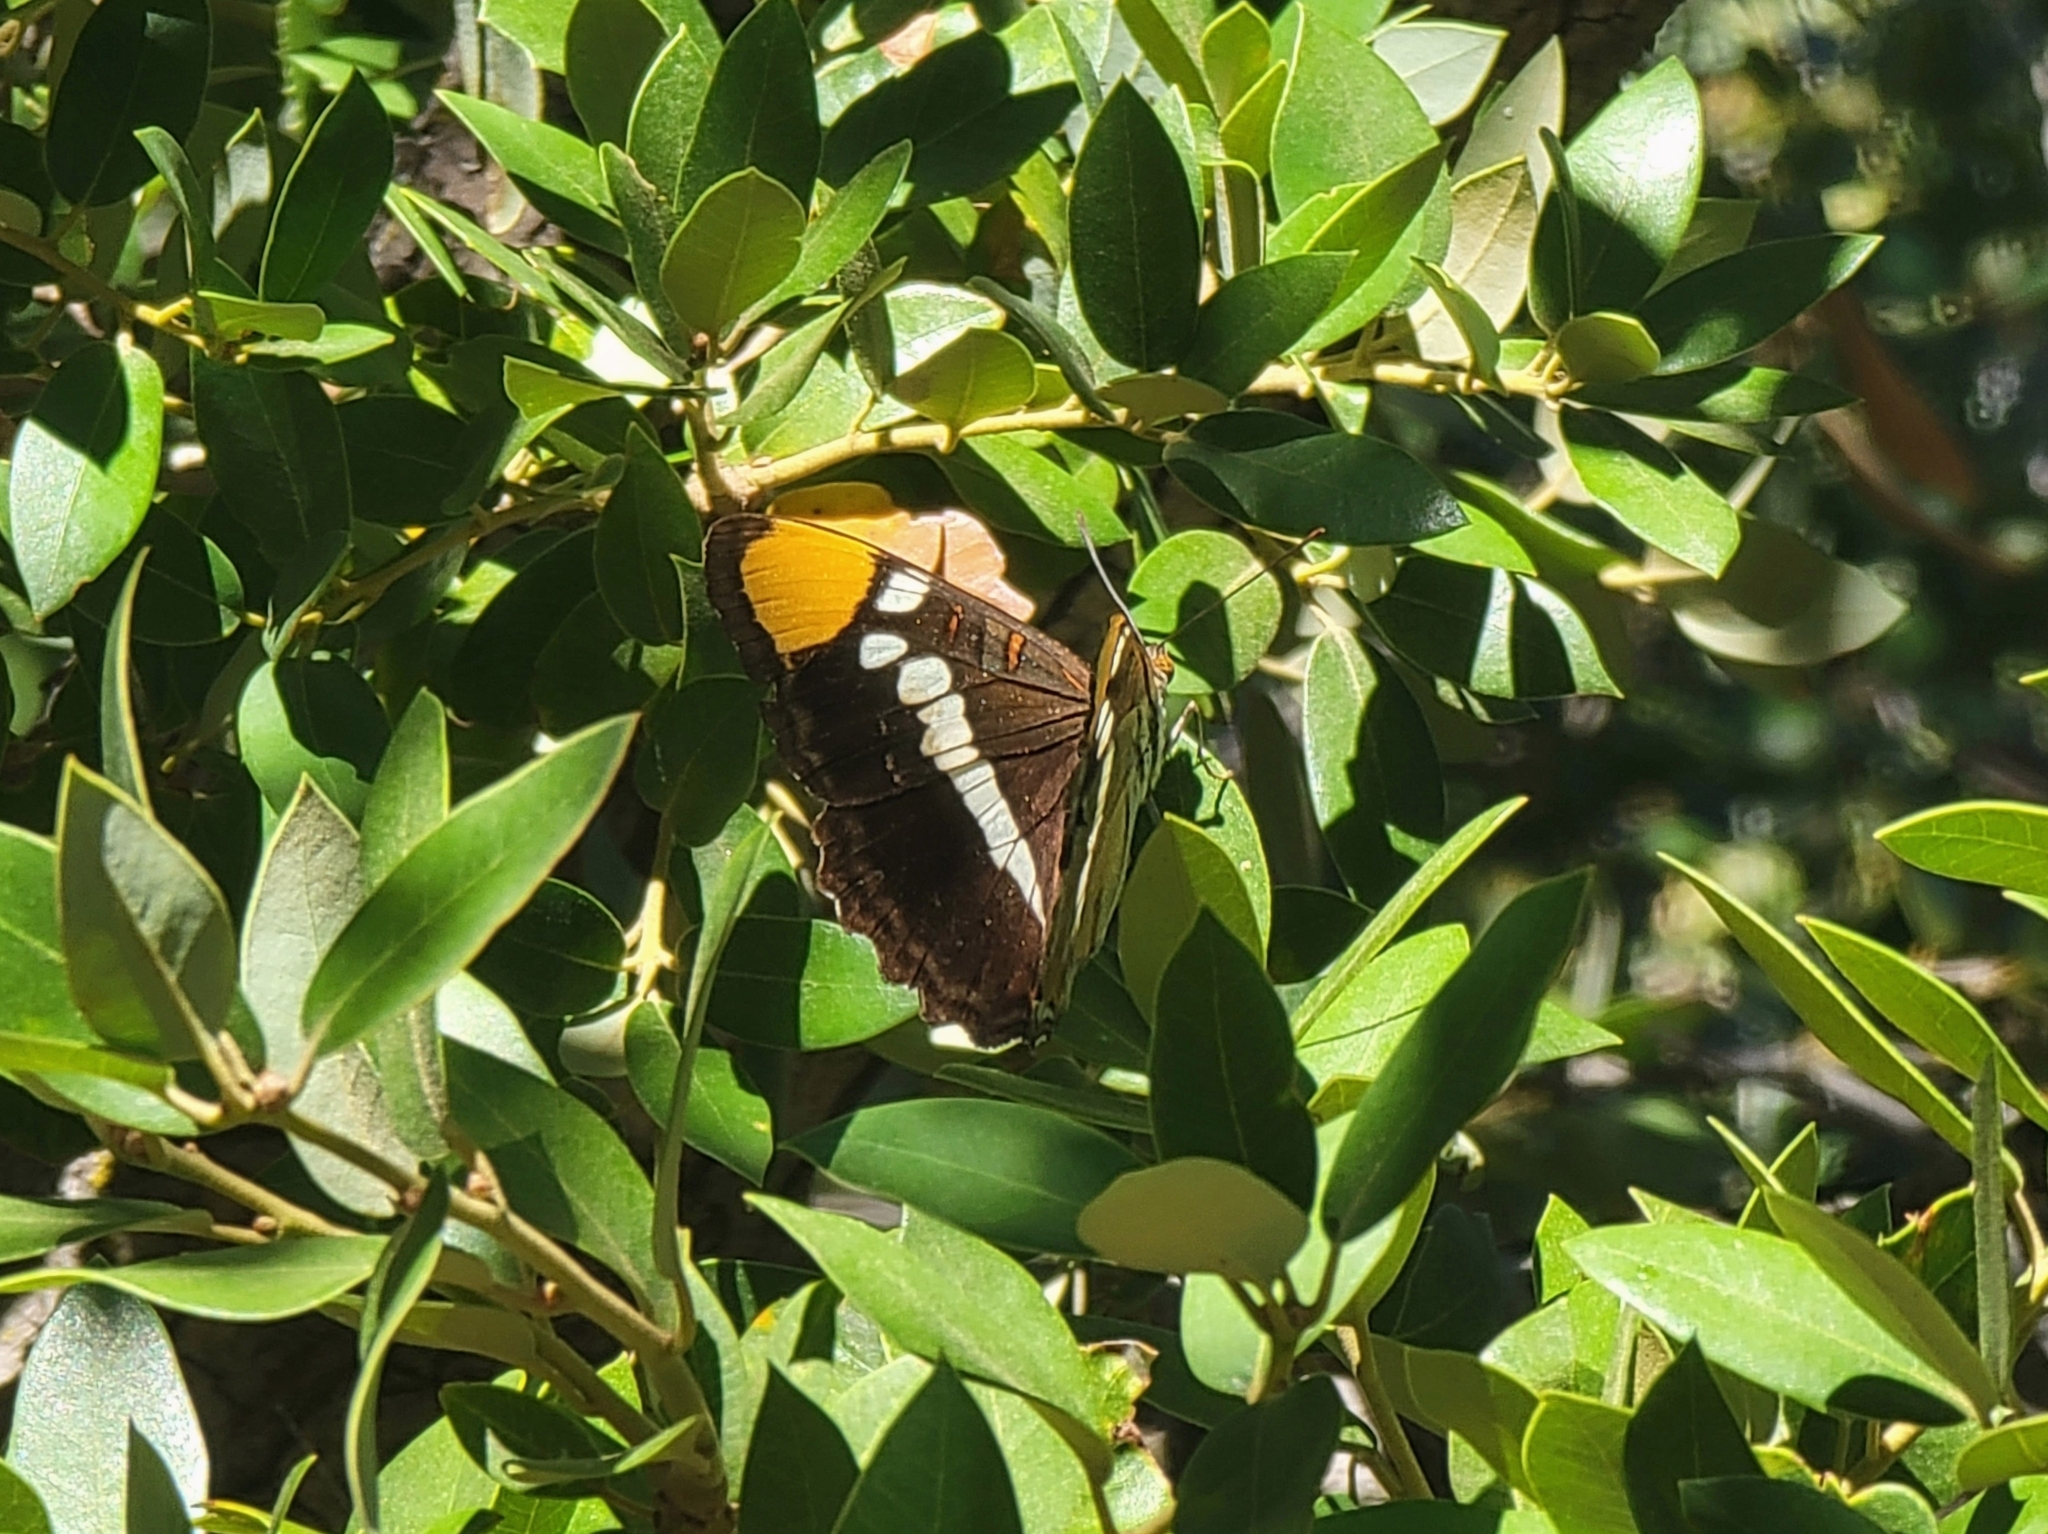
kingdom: Animalia
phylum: Arthropoda
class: Insecta
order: Lepidoptera
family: Nymphalidae
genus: Limenitis
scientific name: Limenitis bredowii
